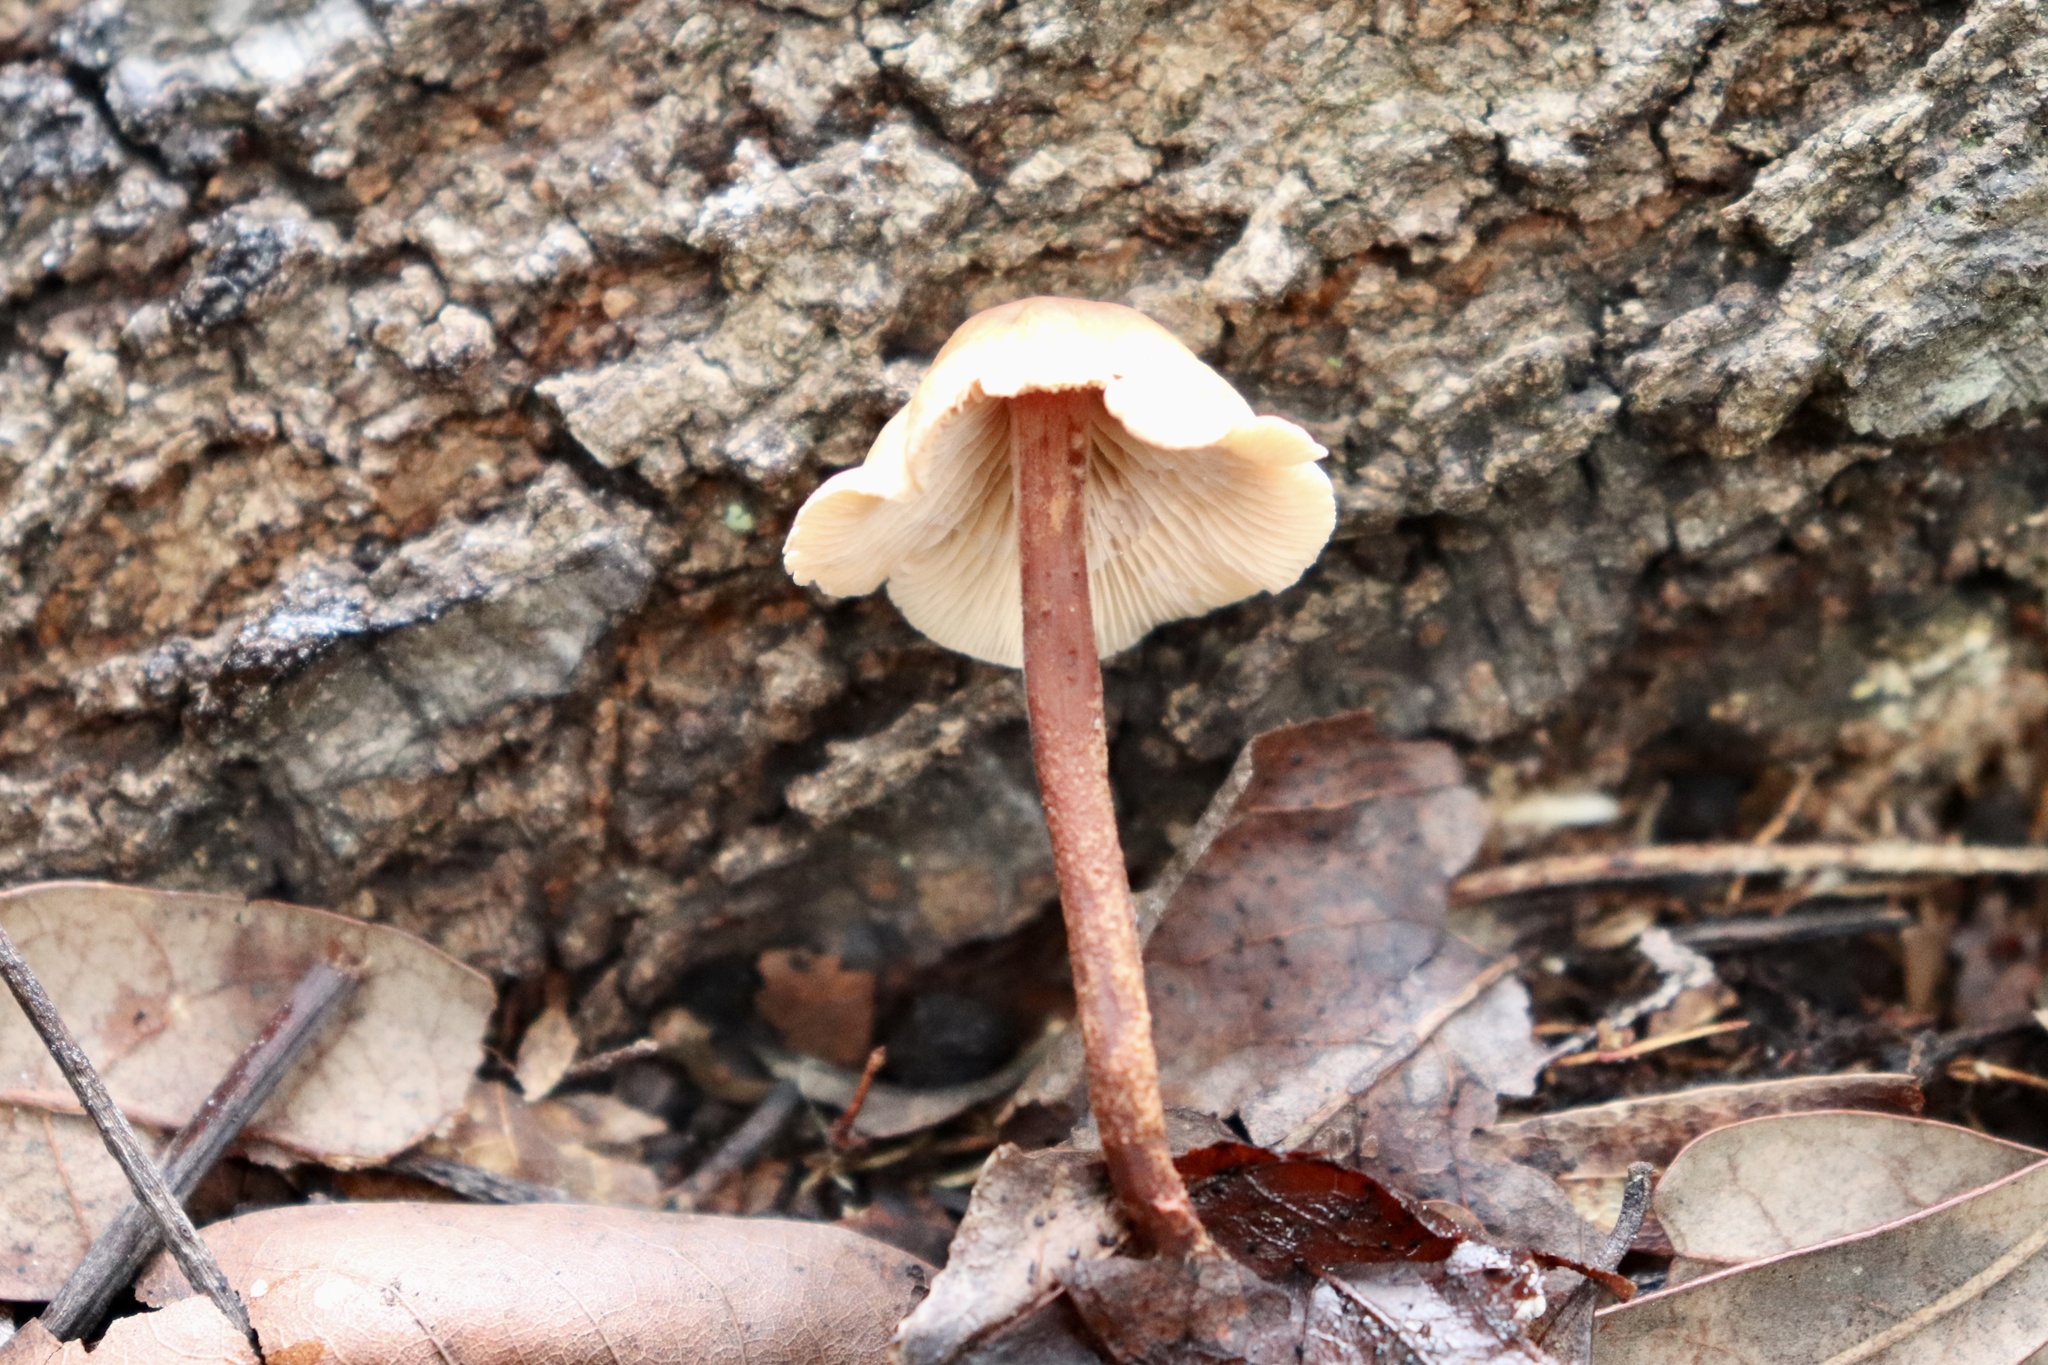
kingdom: Fungi
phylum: Basidiomycota
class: Agaricomycetes
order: Agaricales
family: Omphalotaceae
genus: Gymnopus
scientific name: Gymnopus spongiosus
